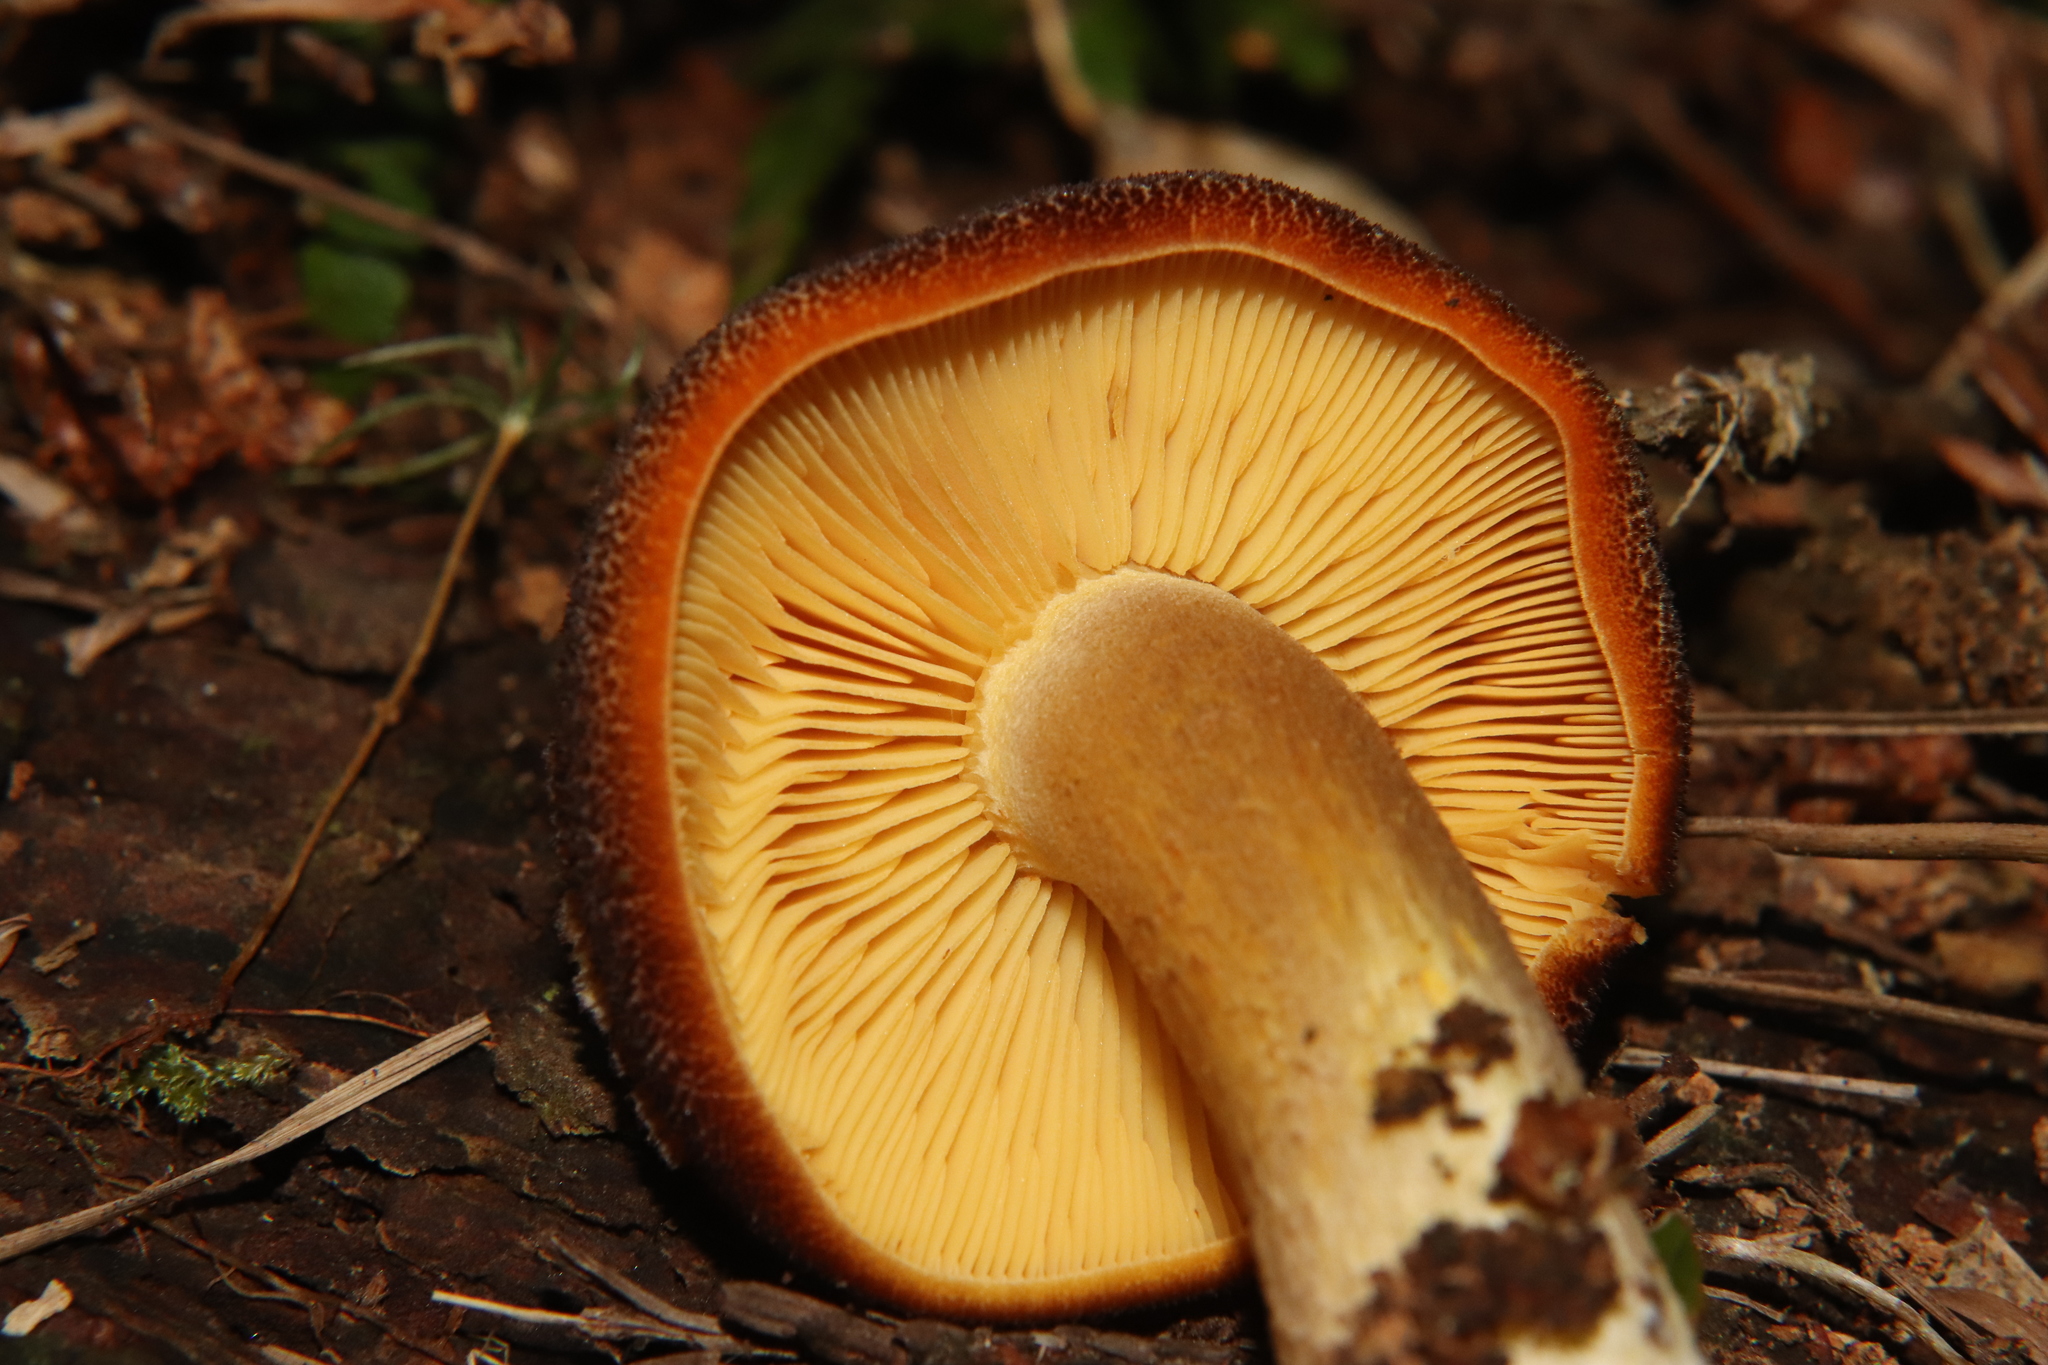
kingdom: Fungi
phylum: Basidiomycota
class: Agaricomycetes
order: Agaricales
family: Tricholomataceae
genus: Tricholomopsis
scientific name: Tricholomopsis scabra
